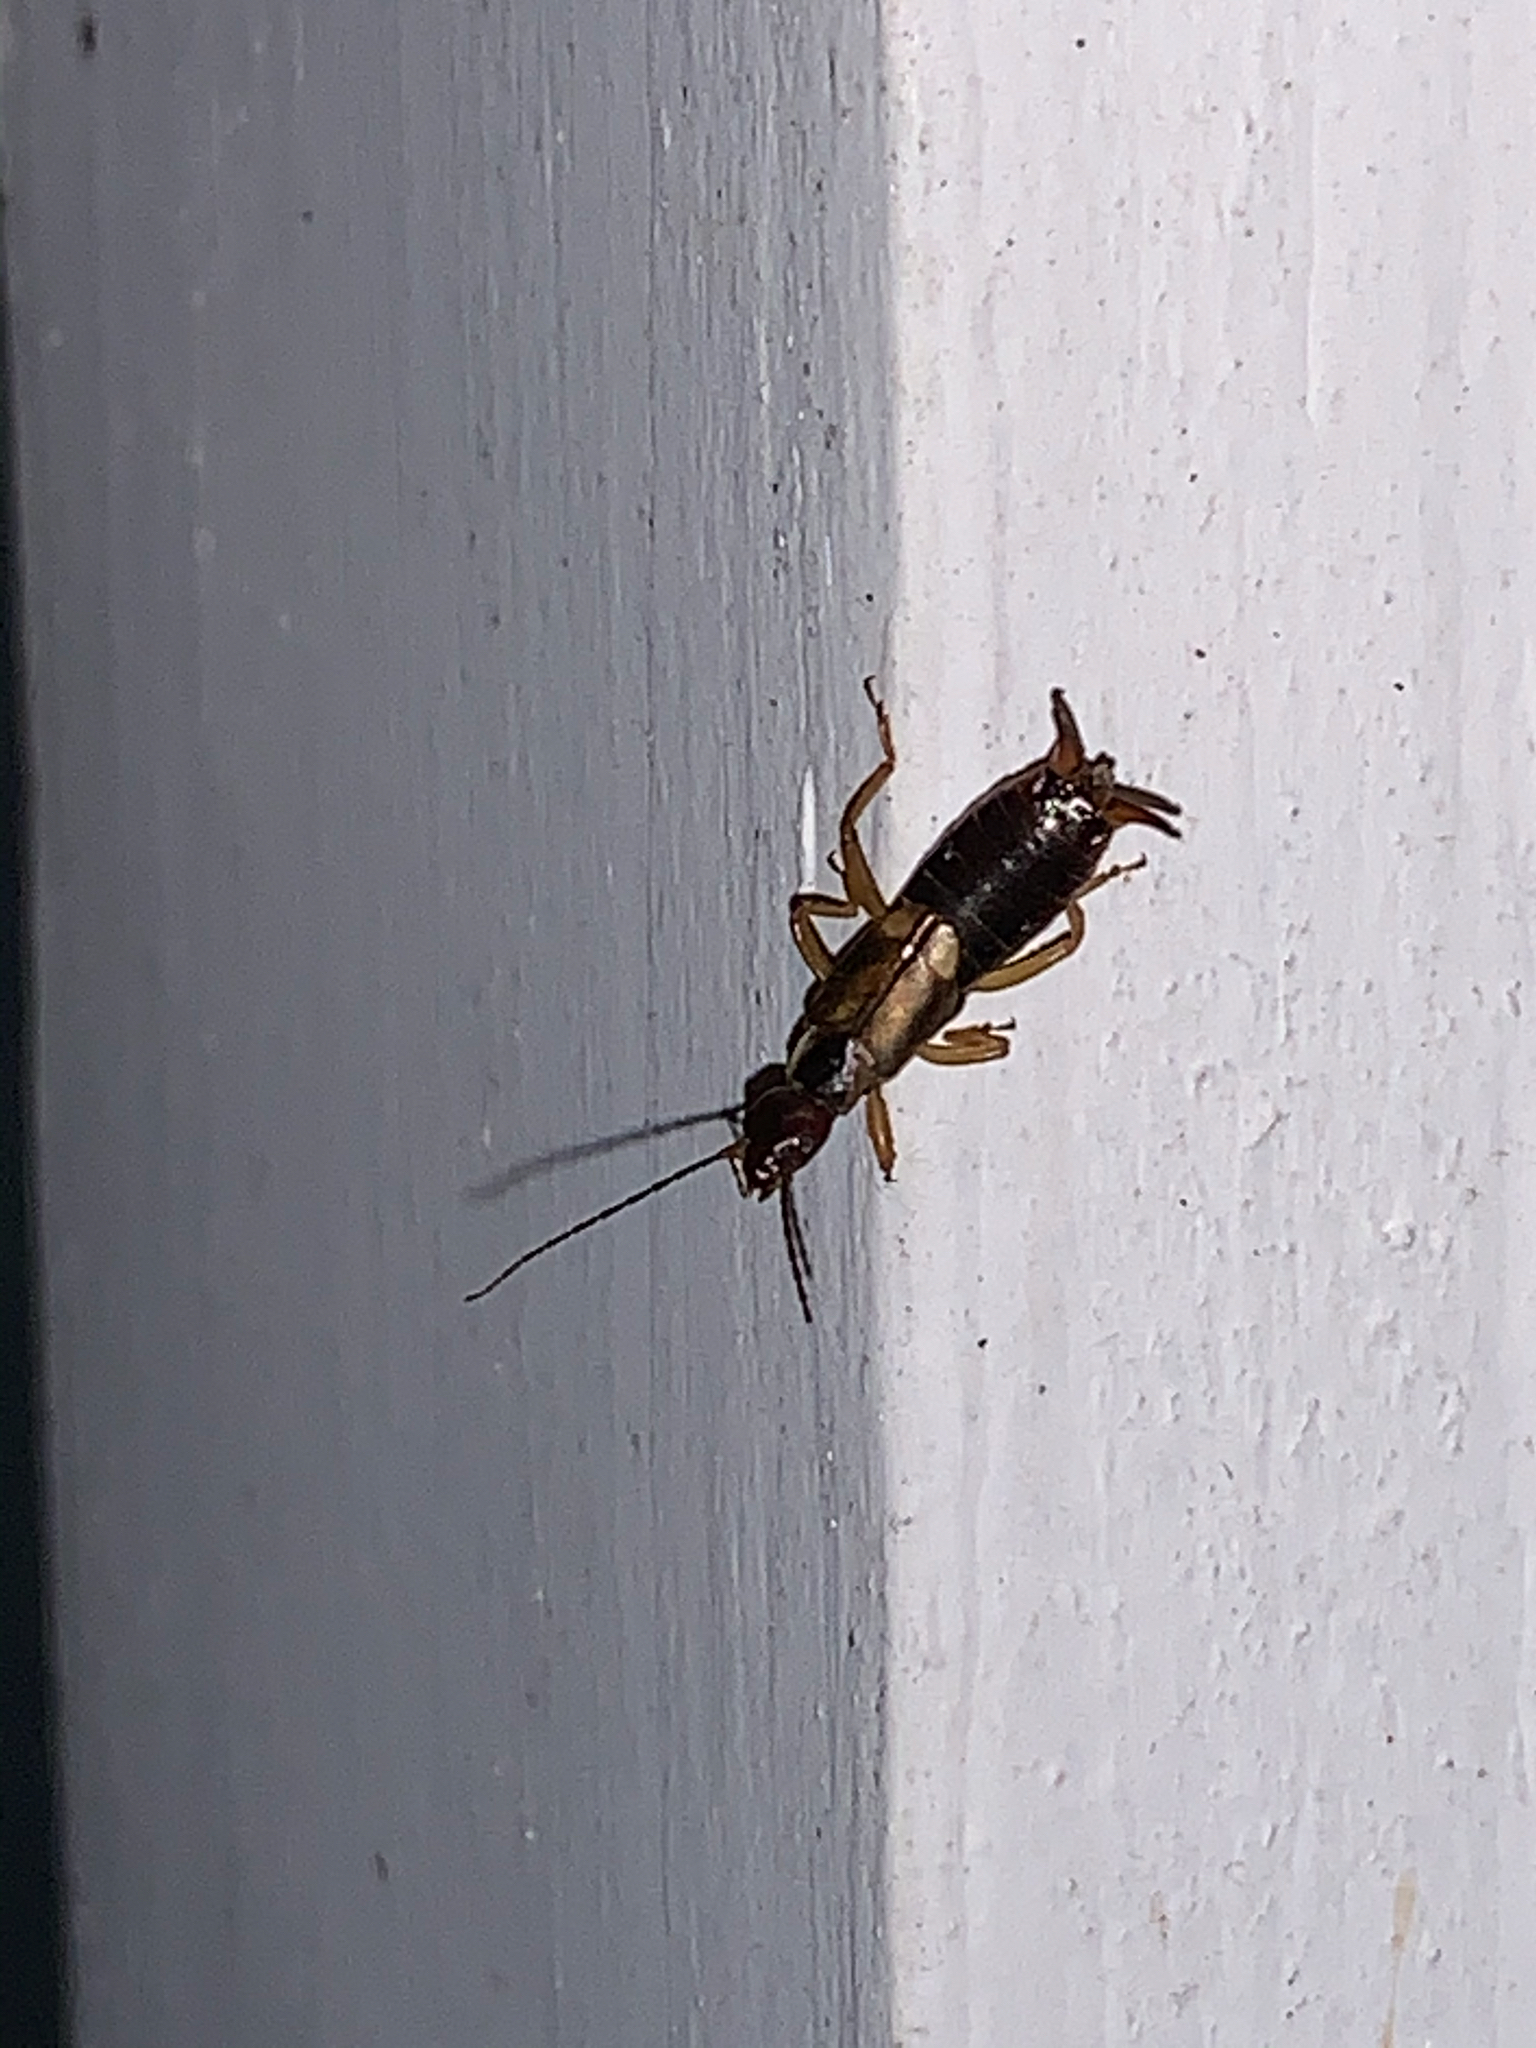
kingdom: Animalia
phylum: Arthropoda
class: Insecta
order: Dermaptera
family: Forficulidae
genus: Forficula
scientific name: Forficula
